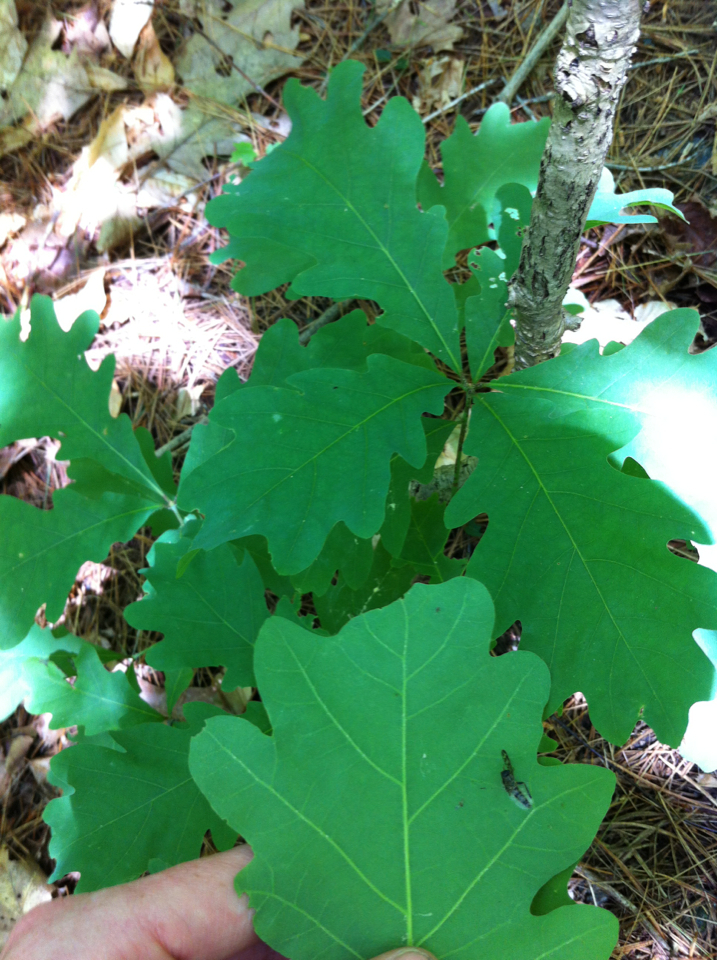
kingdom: Plantae
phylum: Tracheophyta
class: Magnoliopsida
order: Fagales
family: Fagaceae
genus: Quercus
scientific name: Quercus alba
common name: White oak
